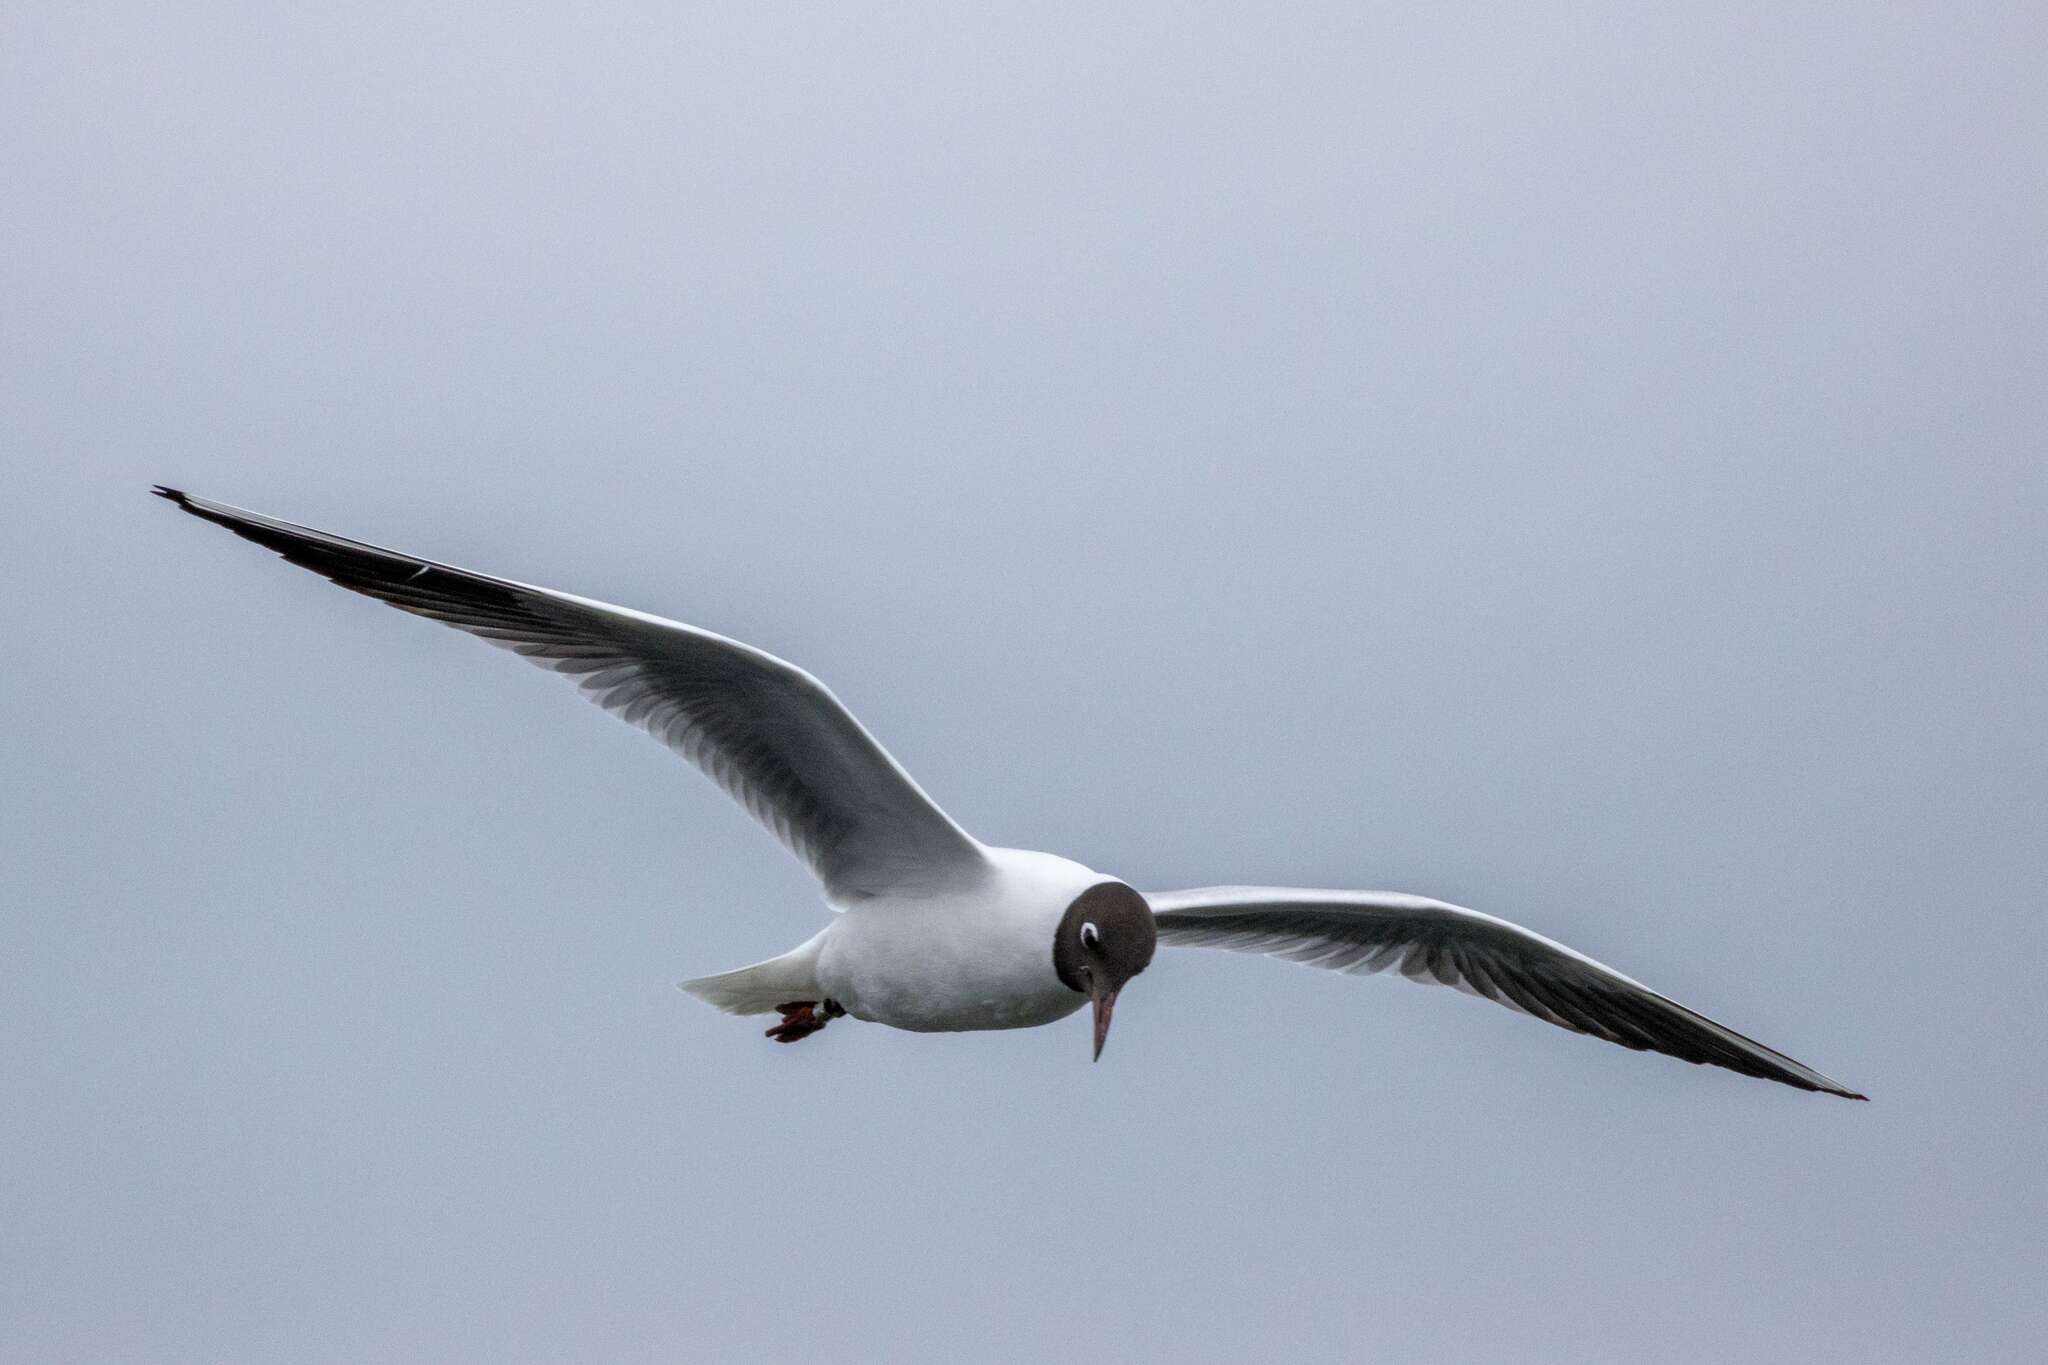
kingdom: Animalia
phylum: Chordata
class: Aves
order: Charadriiformes
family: Laridae
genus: Chroicocephalus
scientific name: Chroicocephalus ridibundus
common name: Black-headed gull
